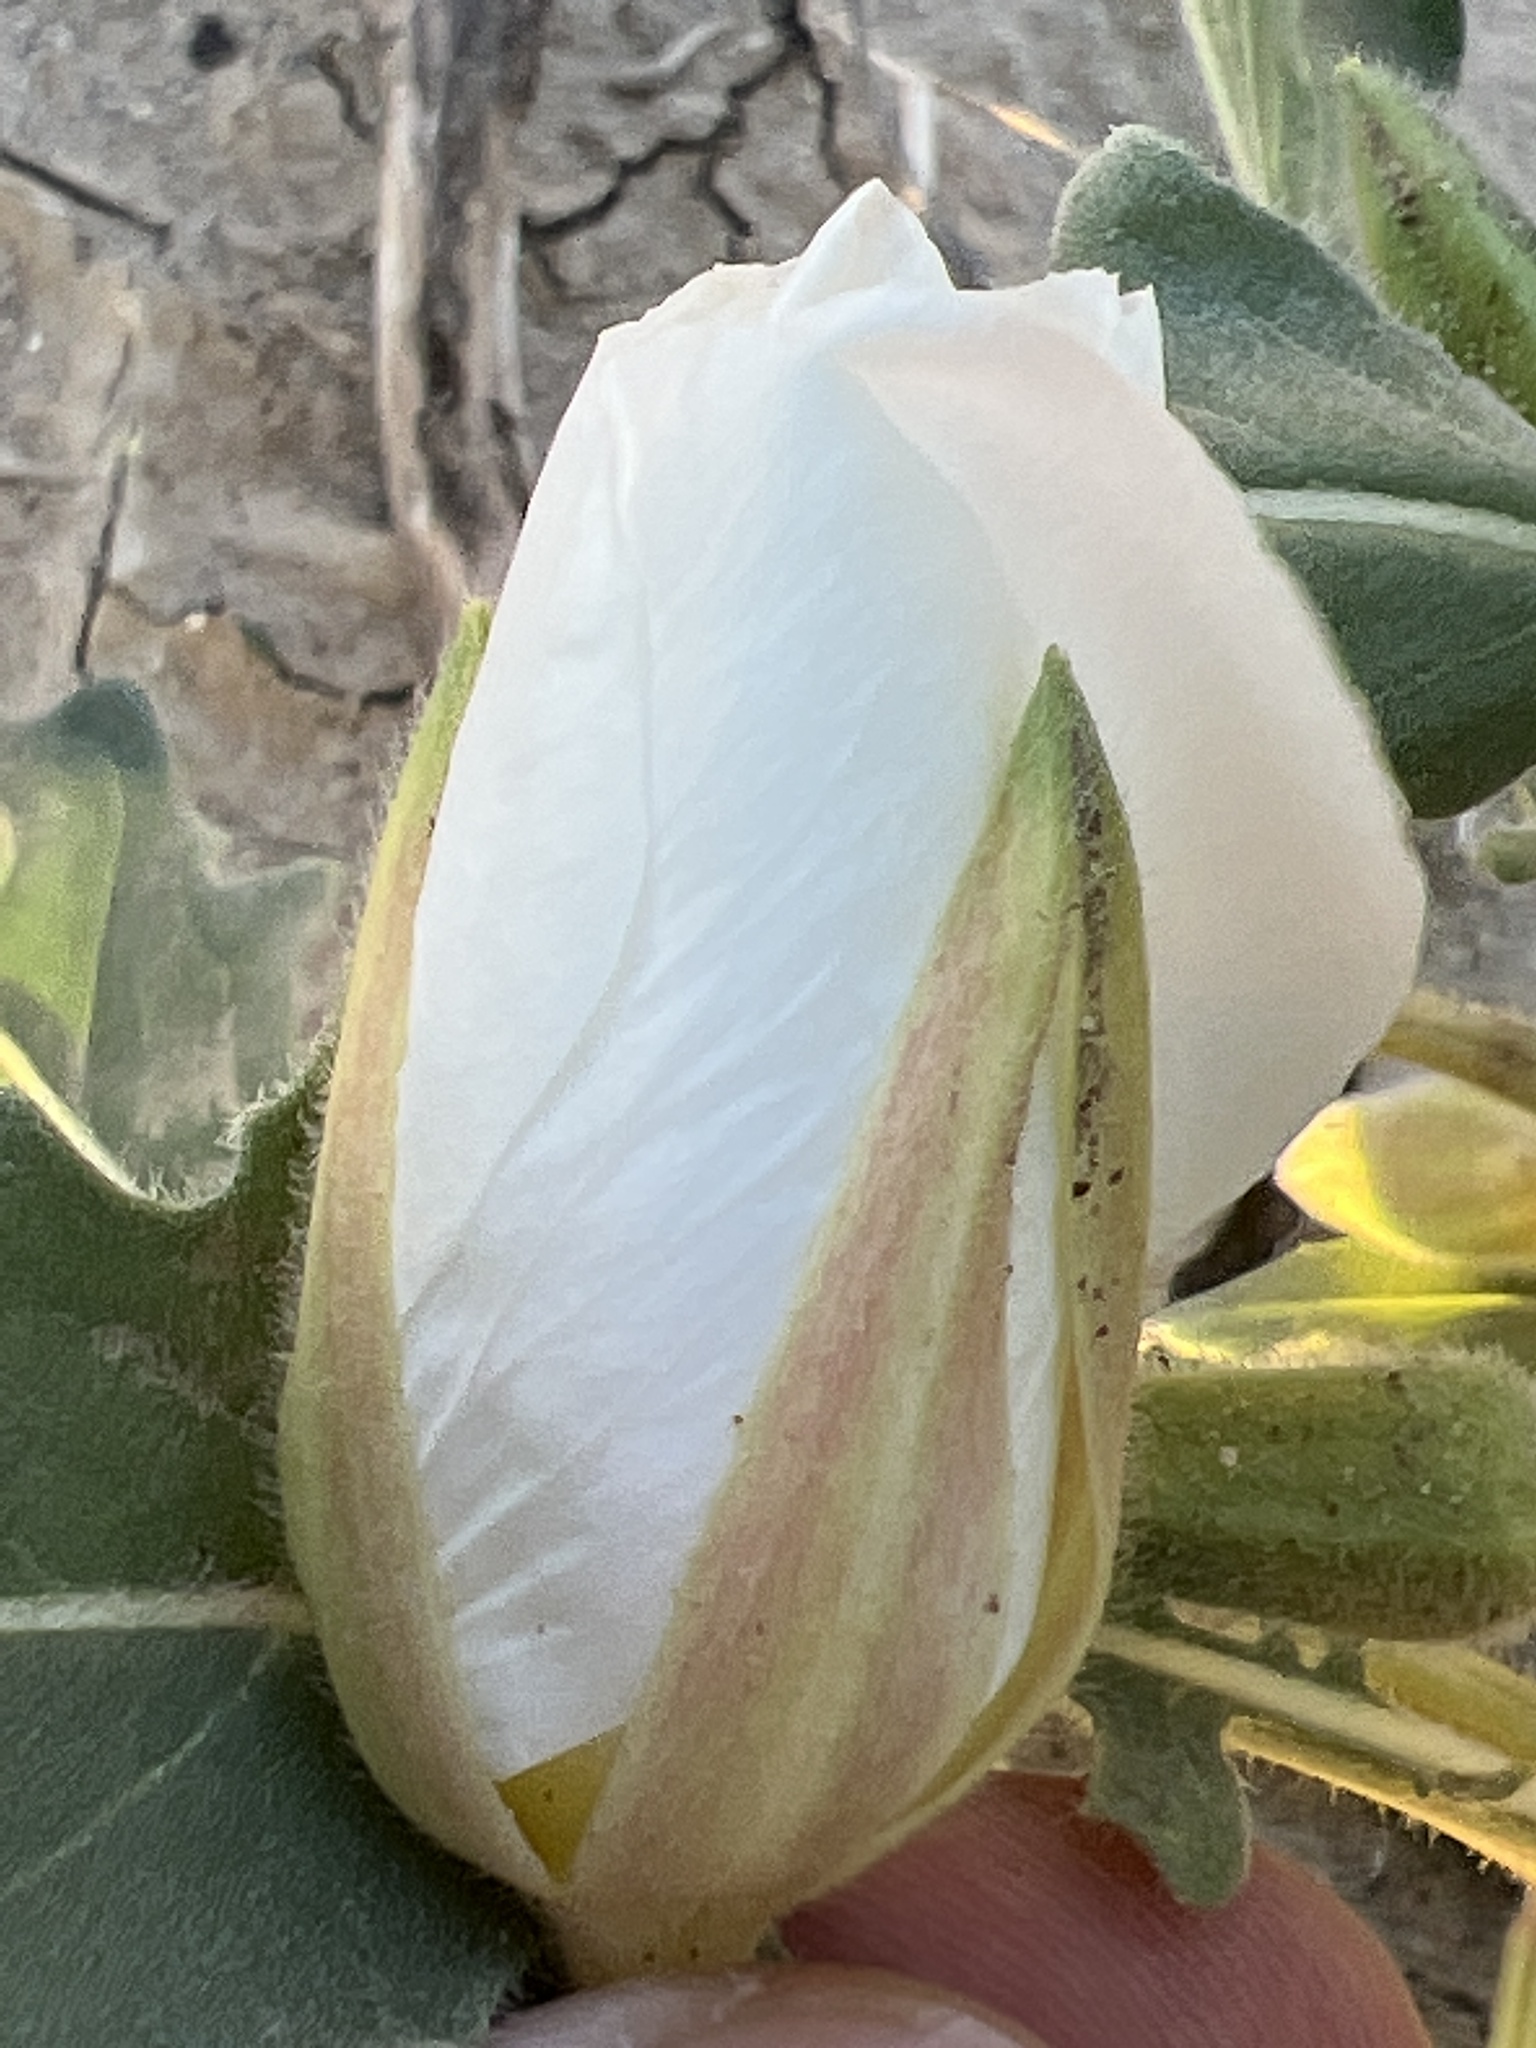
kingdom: Plantae
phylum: Tracheophyta
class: Magnoliopsida
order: Myrtales
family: Onagraceae
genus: Oenothera
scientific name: Oenothera deltoides
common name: Basket evening-primrose
